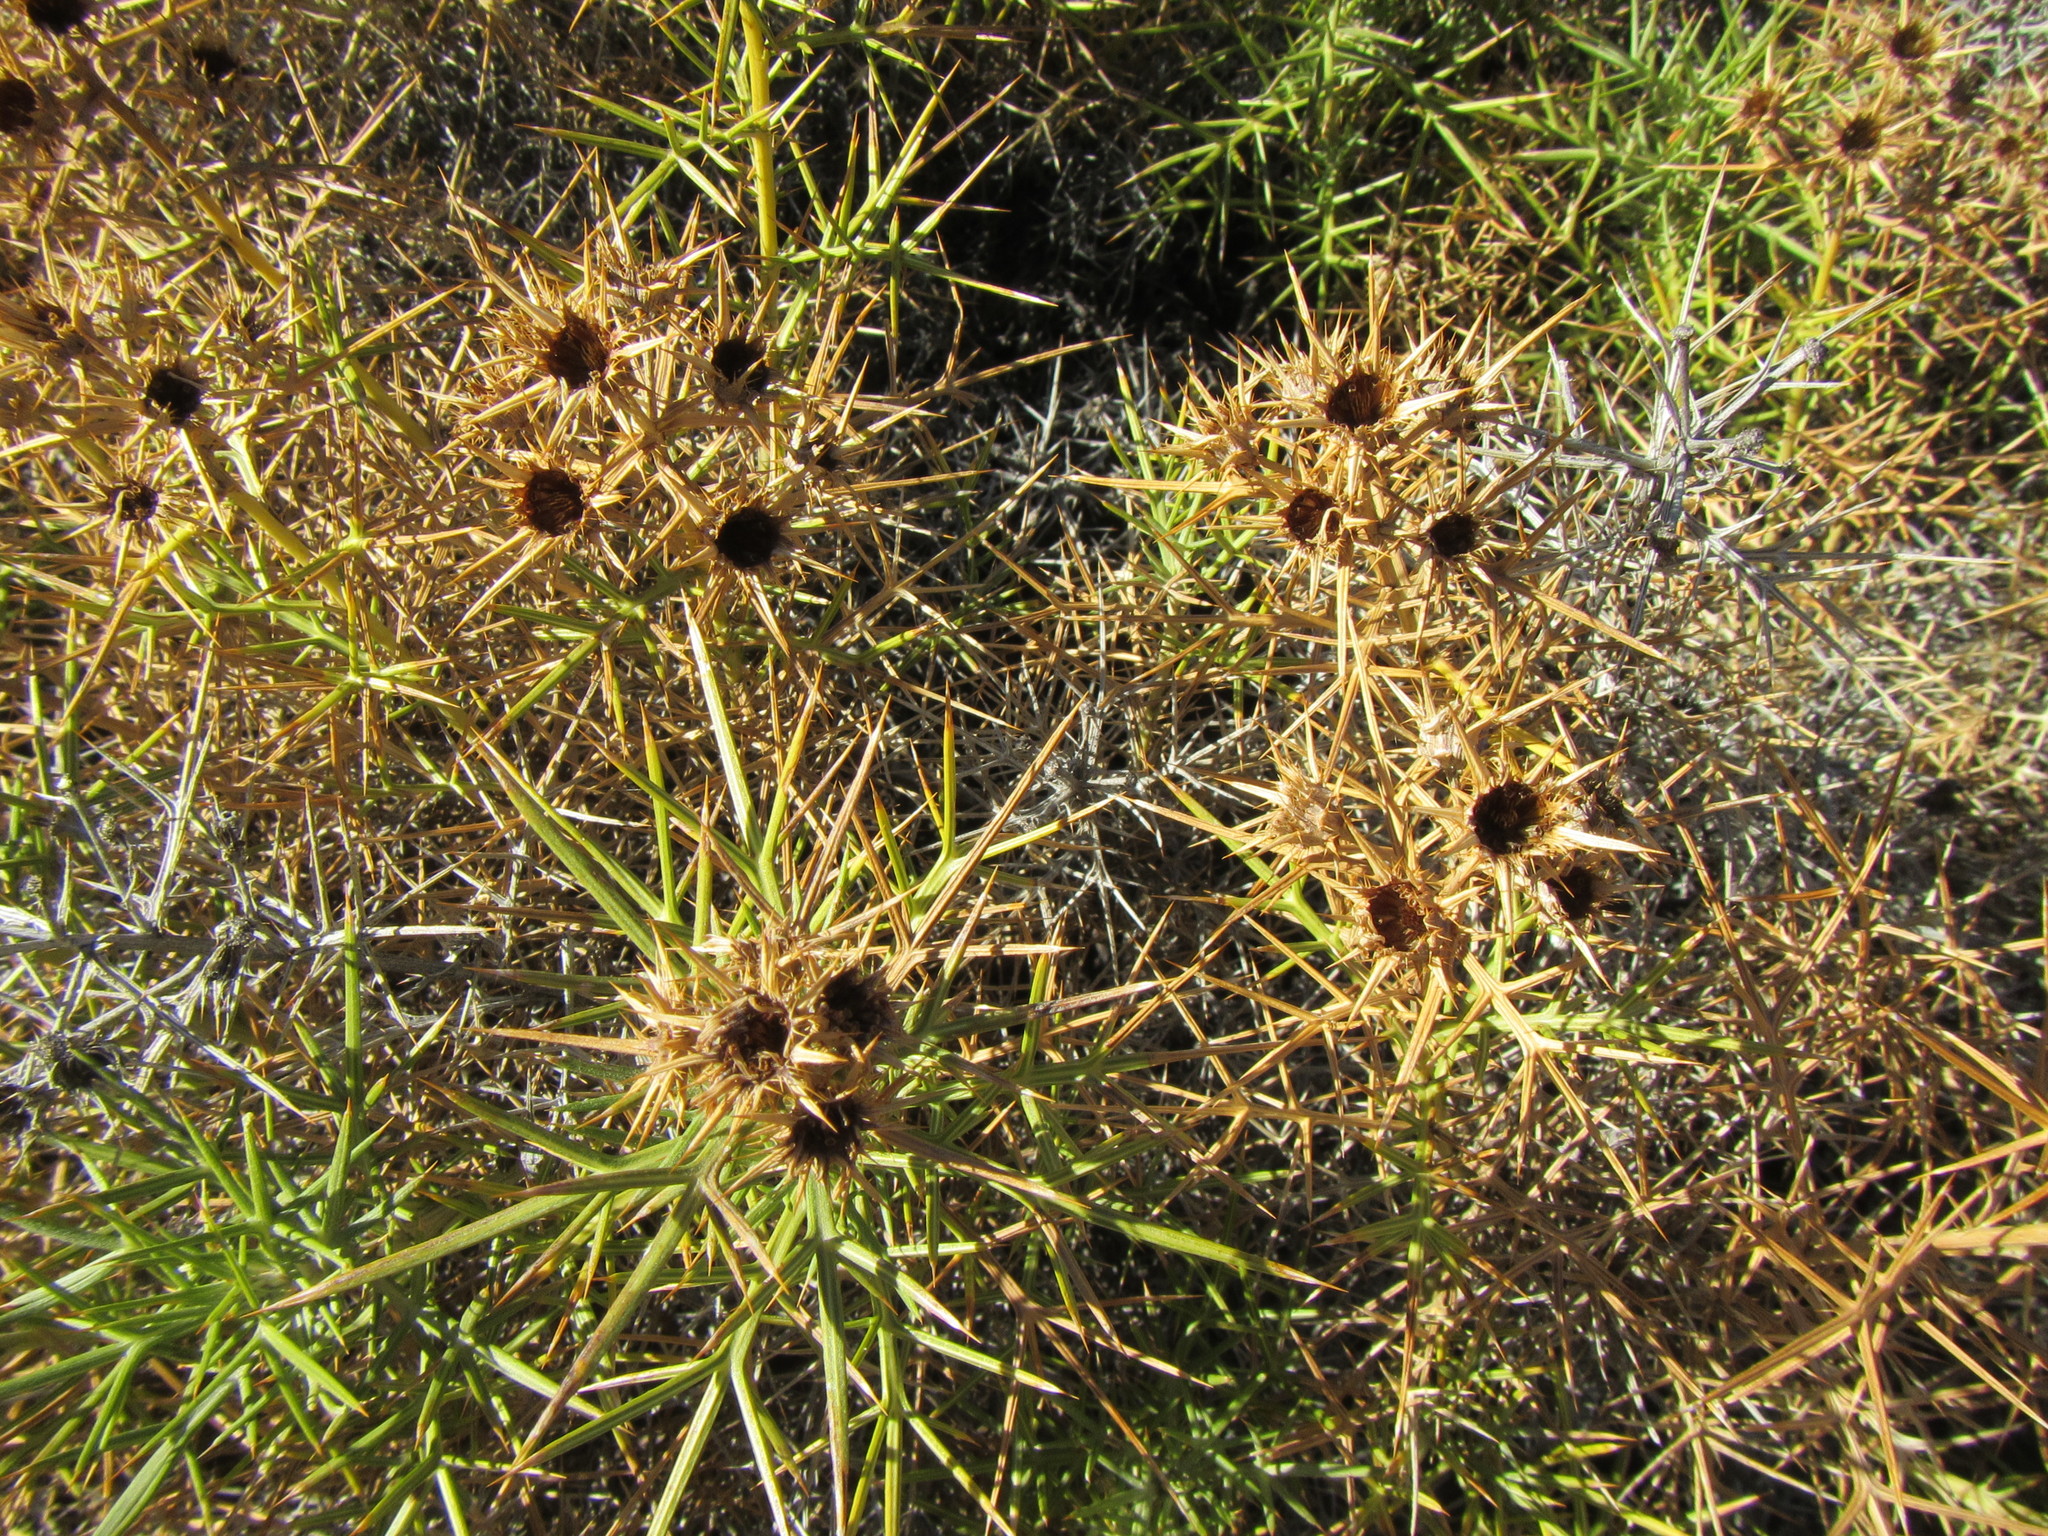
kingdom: Plantae
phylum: Tracheophyta
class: Magnoliopsida
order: Asterales
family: Asteraceae
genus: Berkheya
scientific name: Berkheya cardopatifolia
